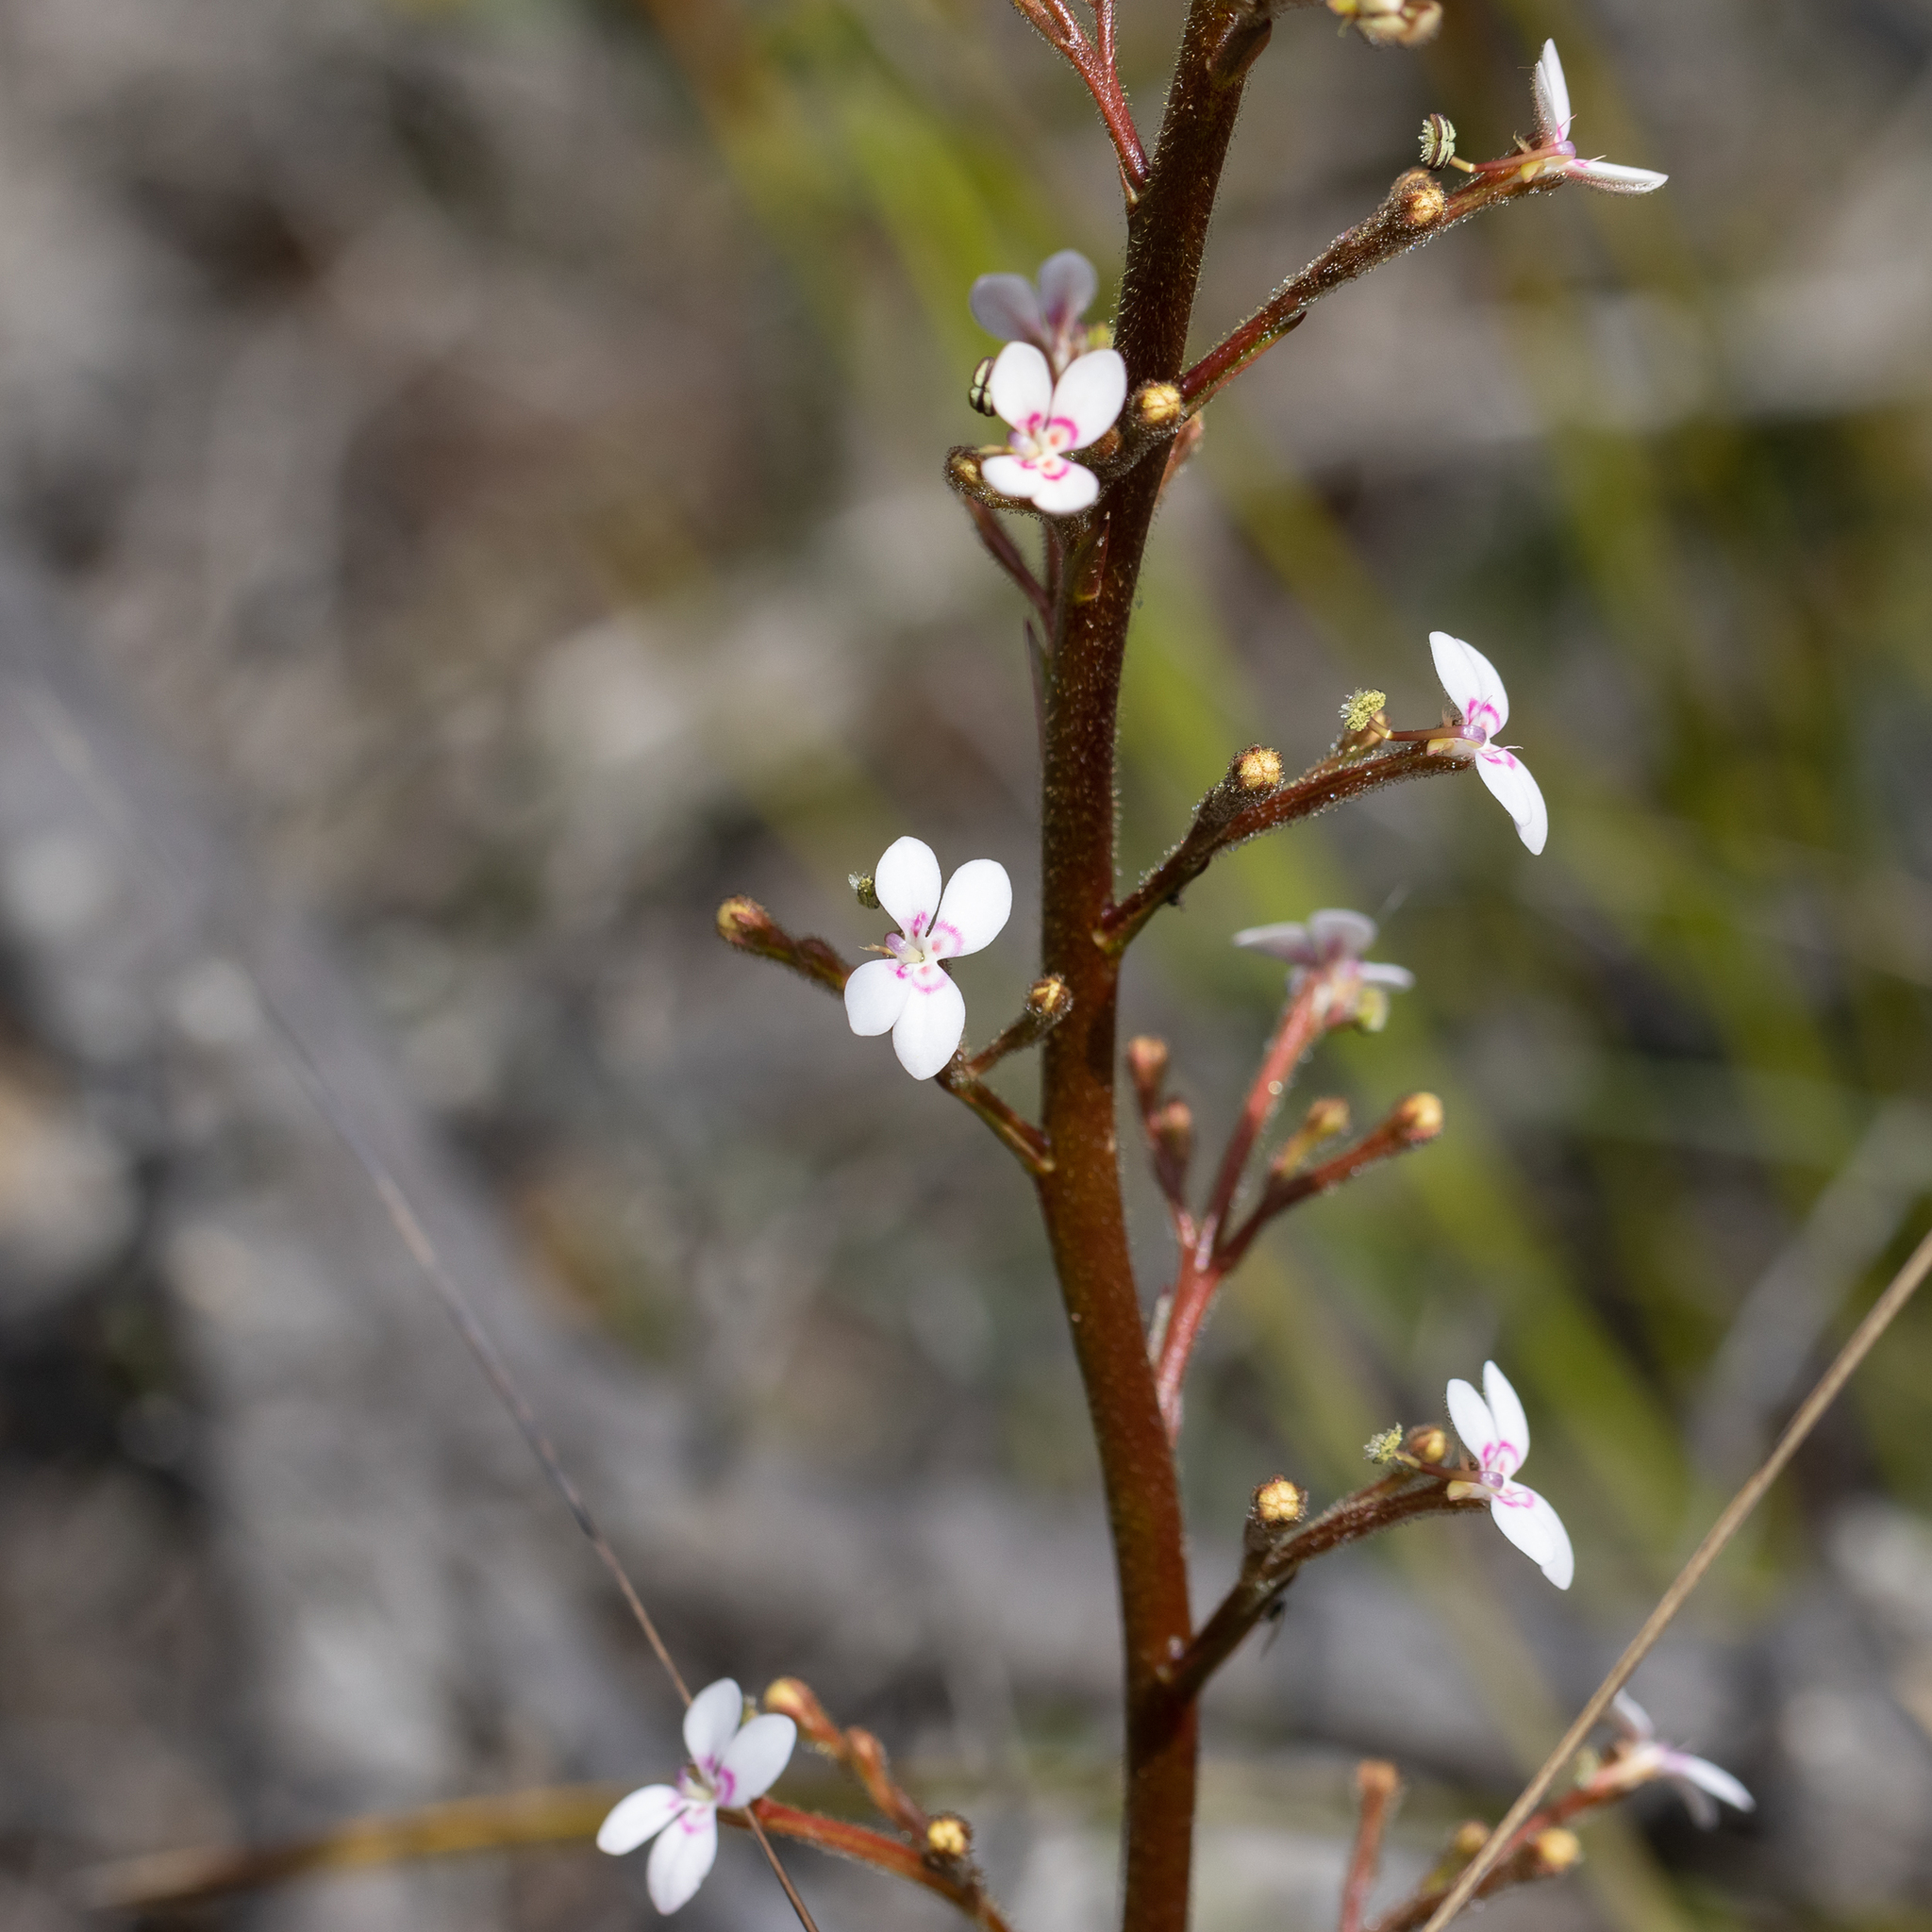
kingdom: Plantae
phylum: Tracheophyta
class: Magnoliopsida
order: Asterales
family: Stylidiaceae
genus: Stylidium
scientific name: Stylidium crassifolium
